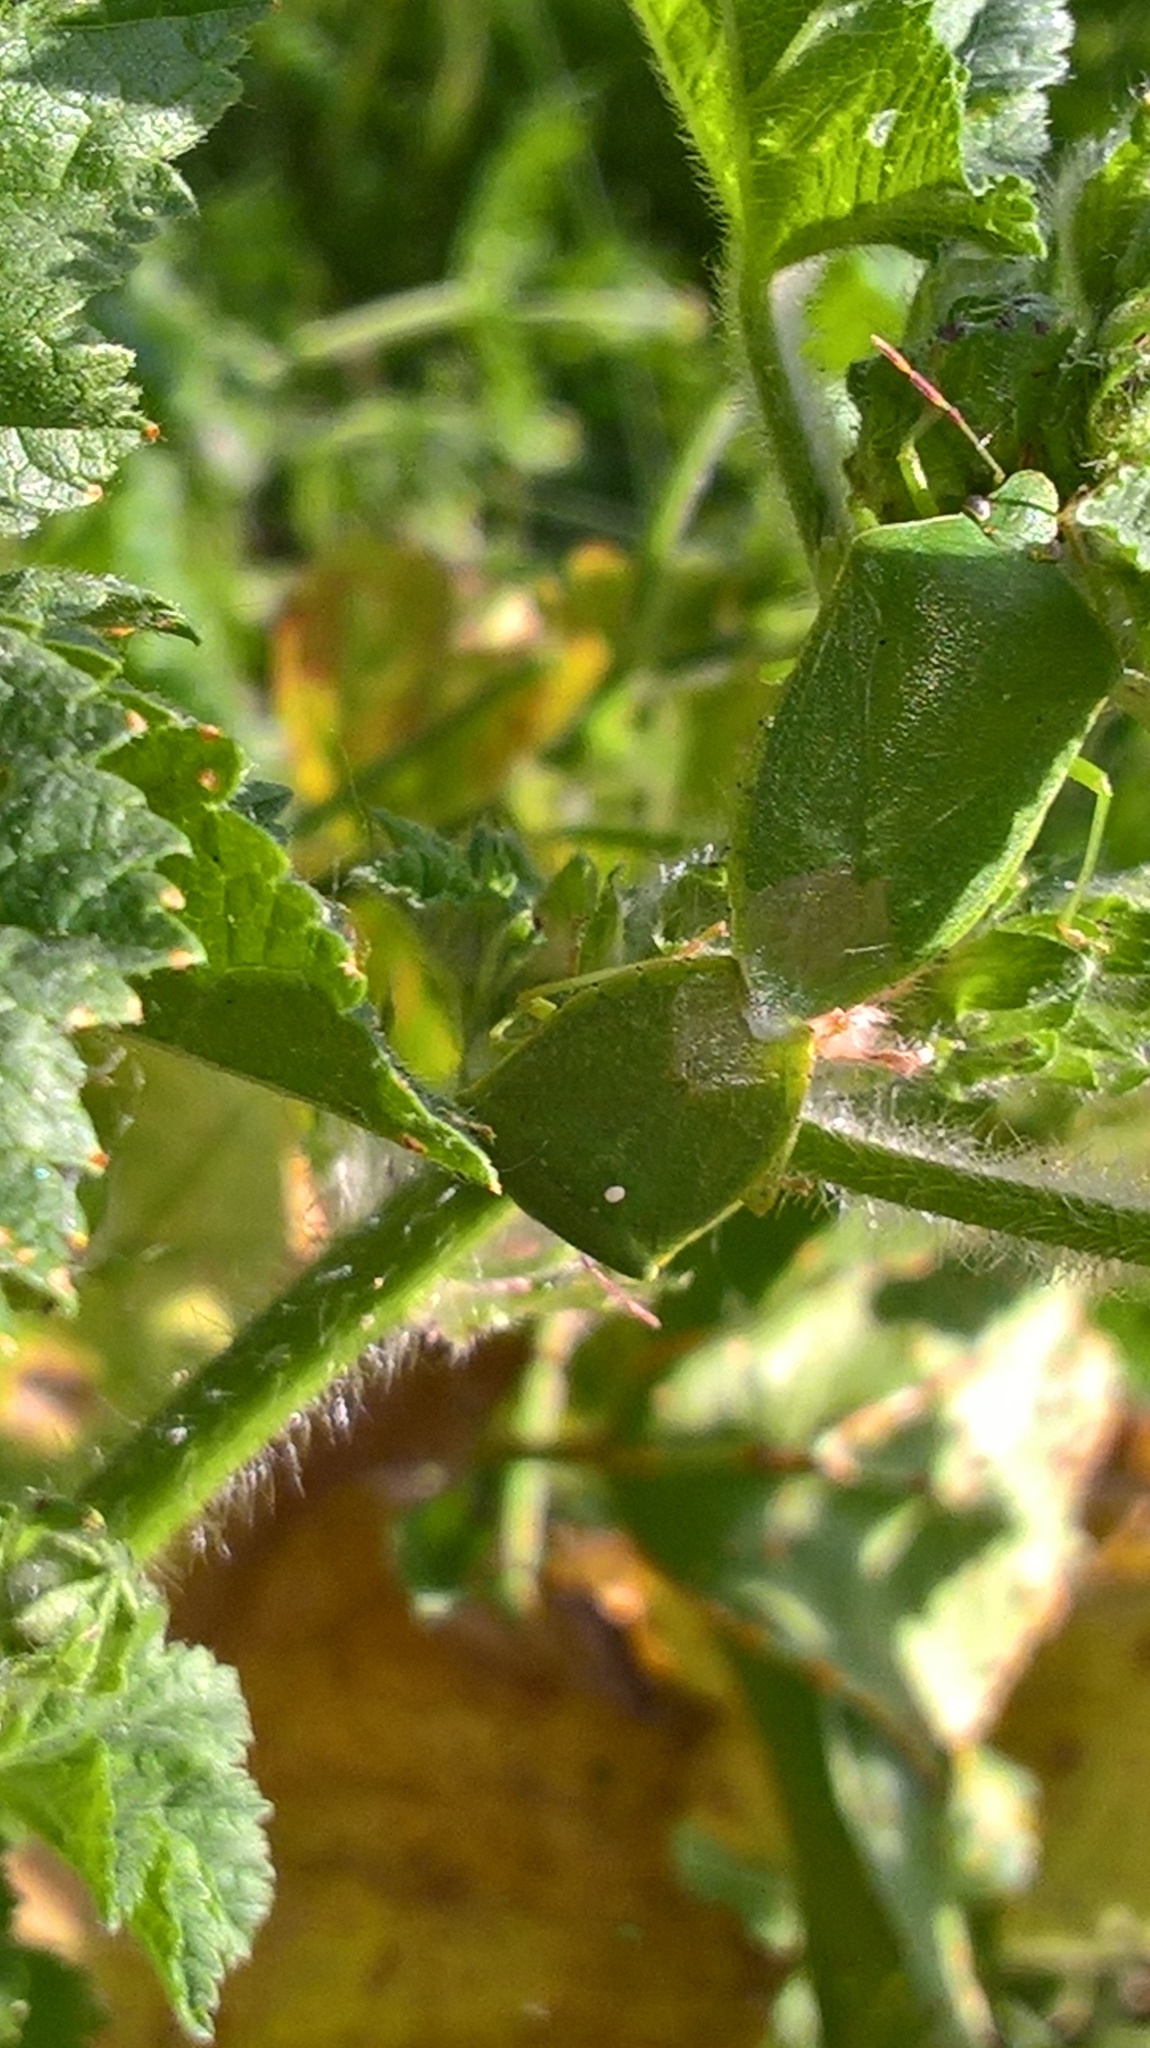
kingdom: Animalia
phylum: Arthropoda
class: Insecta
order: Hemiptera
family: Pentatomidae
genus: Nezara
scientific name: Nezara viridula
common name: Southern green stink bug
